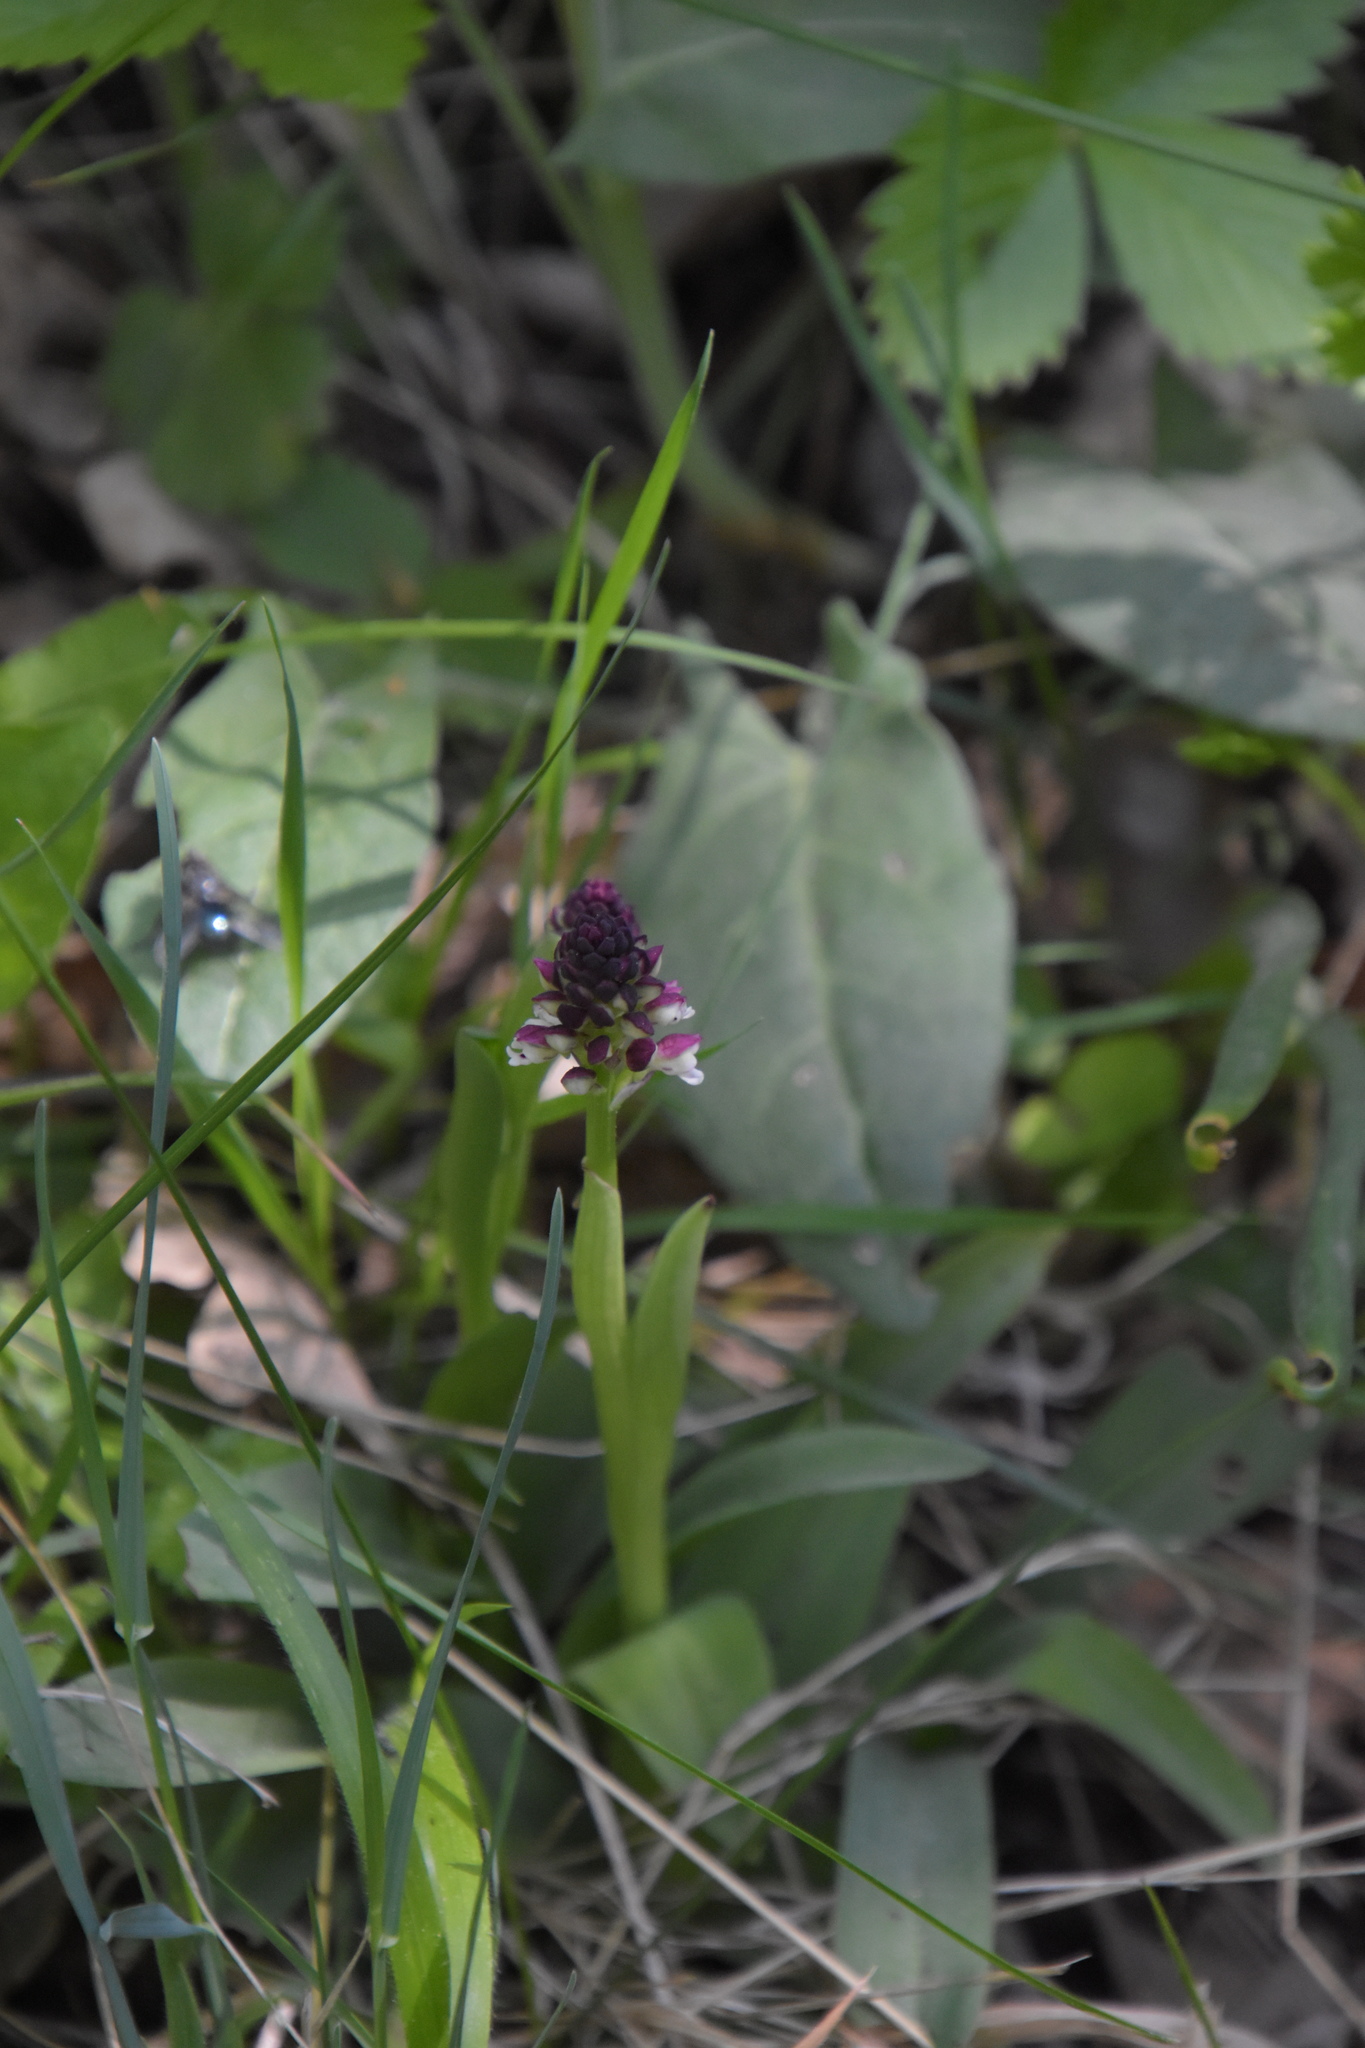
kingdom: Plantae
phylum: Tracheophyta
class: Liliopsida
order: Asparagales
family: Orchidaceae
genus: Neotinea
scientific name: Neotinea ustulata
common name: Burnt orchid
